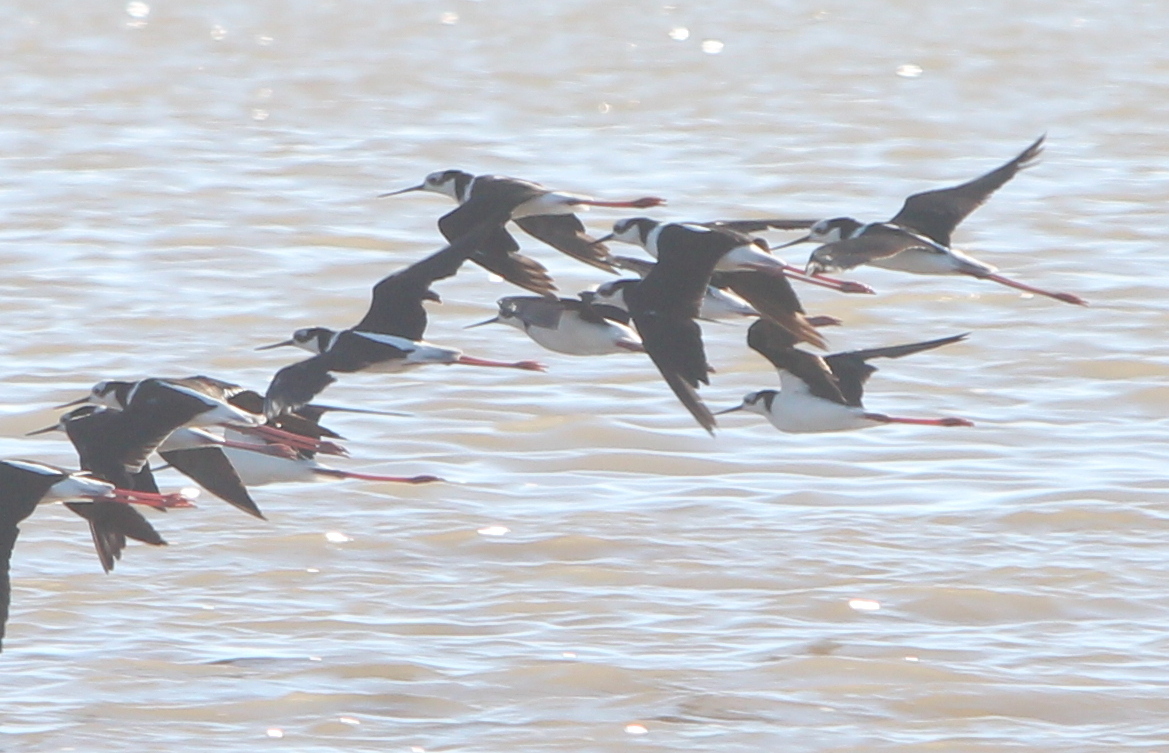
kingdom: Animalia
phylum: Chordata
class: Aves
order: Charadriiformes
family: Recurvirostridae
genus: Himantopus
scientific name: Himantopus mexicanus
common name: Black-necked stilt
